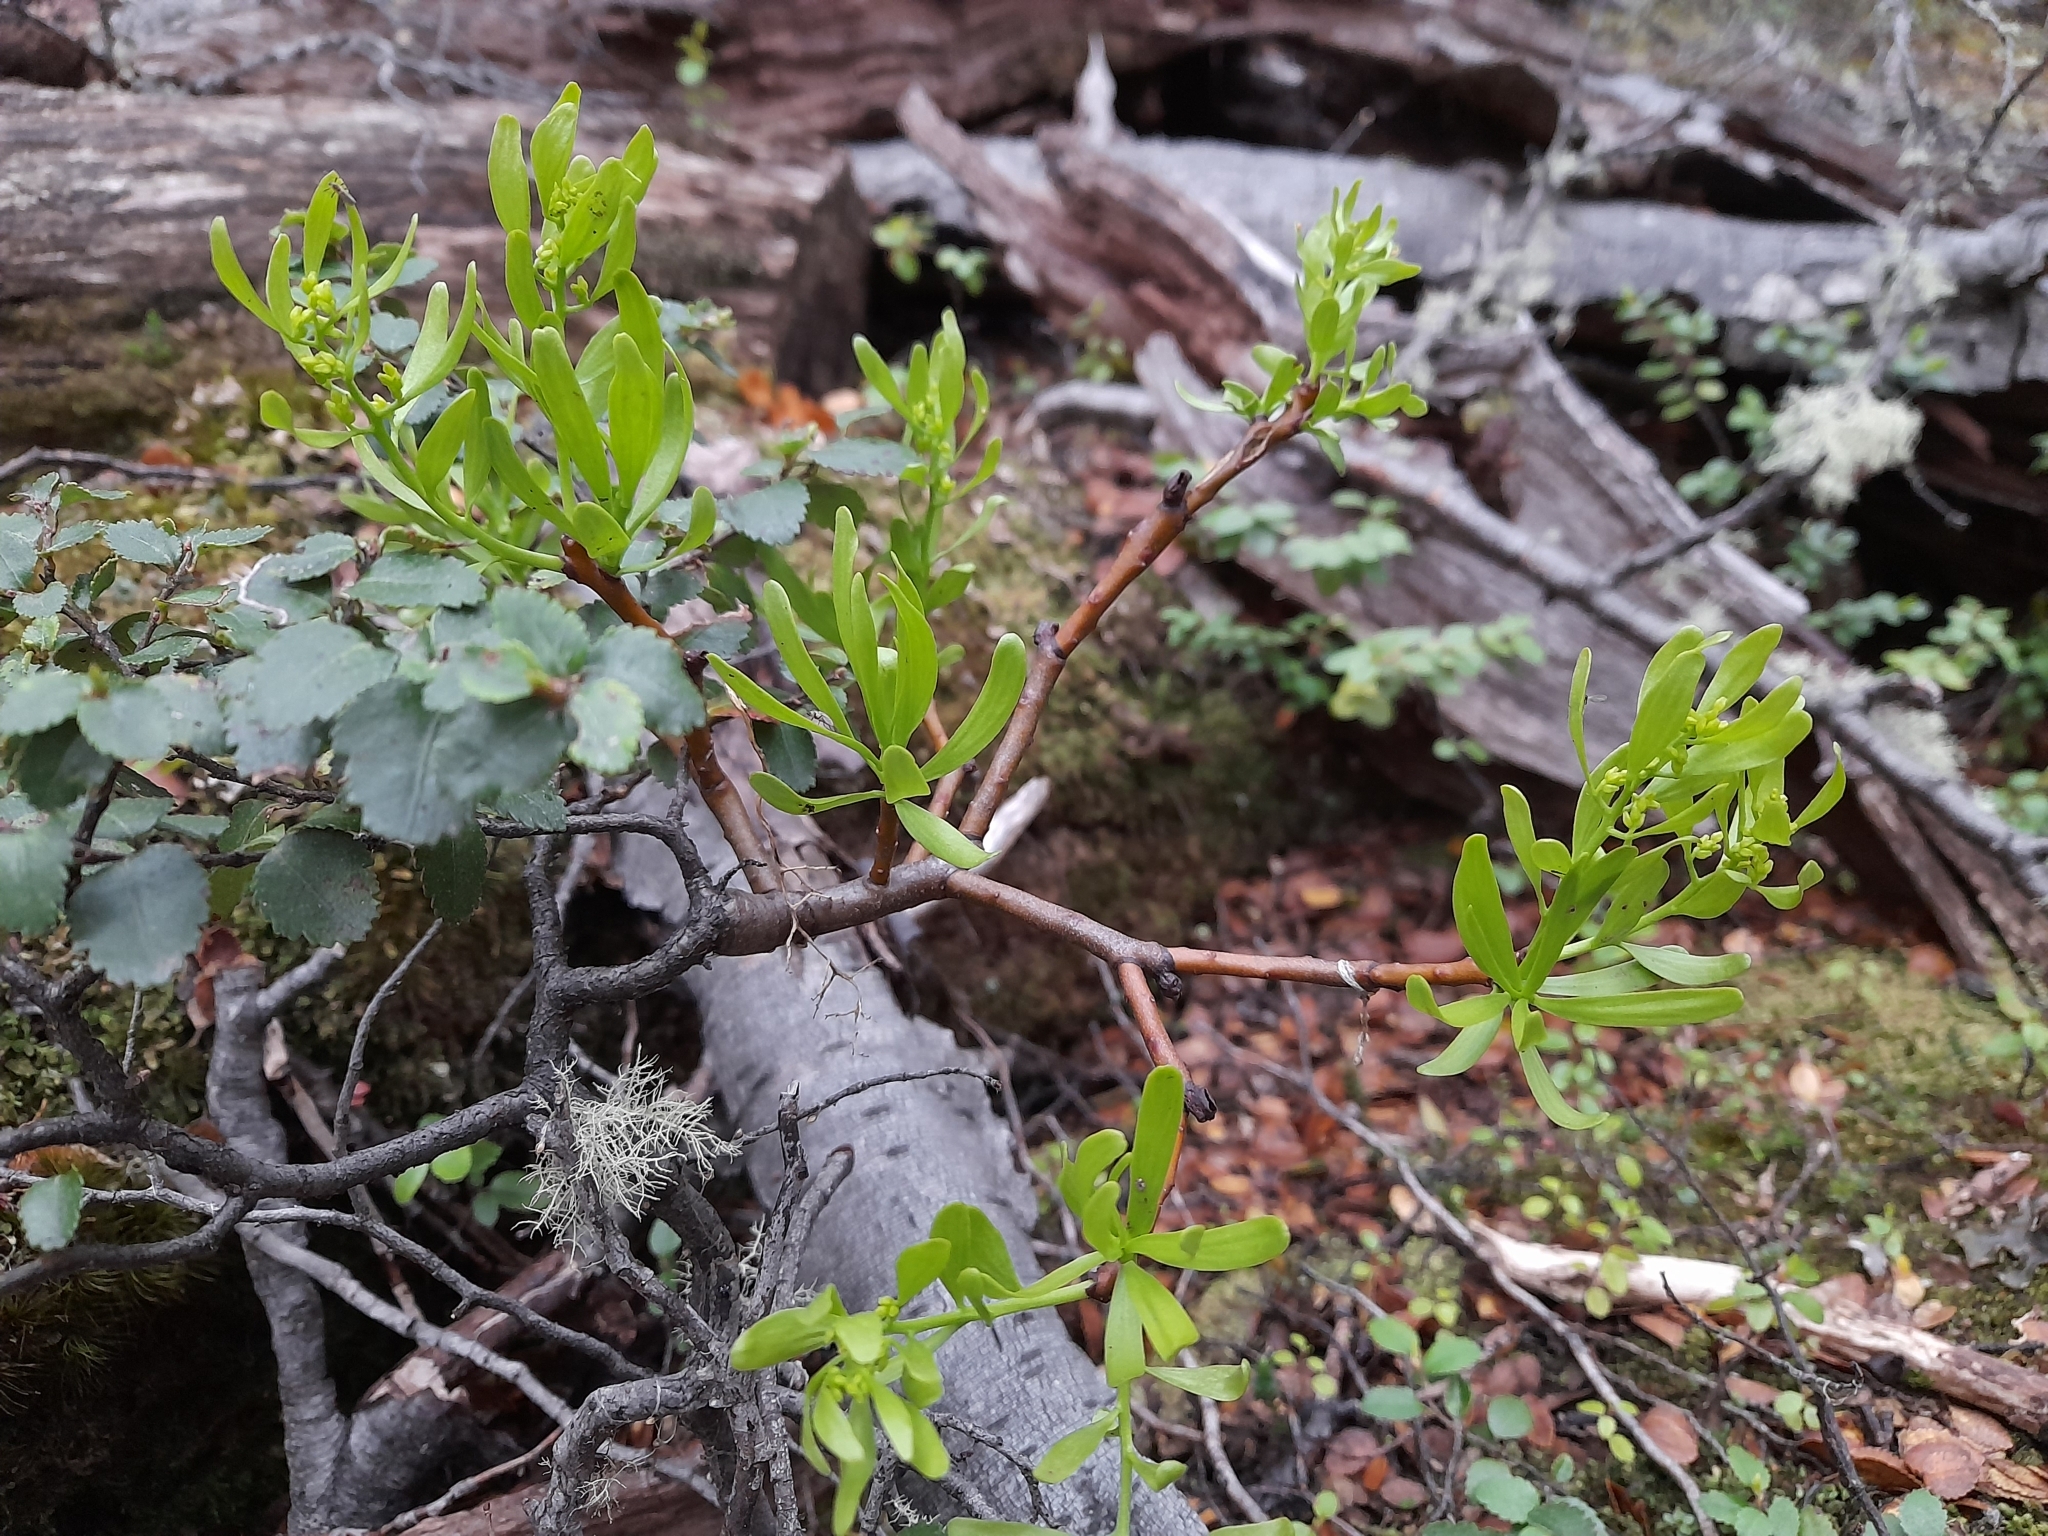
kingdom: Plantae
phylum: Tracheophyta
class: Magnoliopsida
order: Santalales
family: Misodendraceae
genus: Misodendrum
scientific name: Misodendrum brachystachyum
